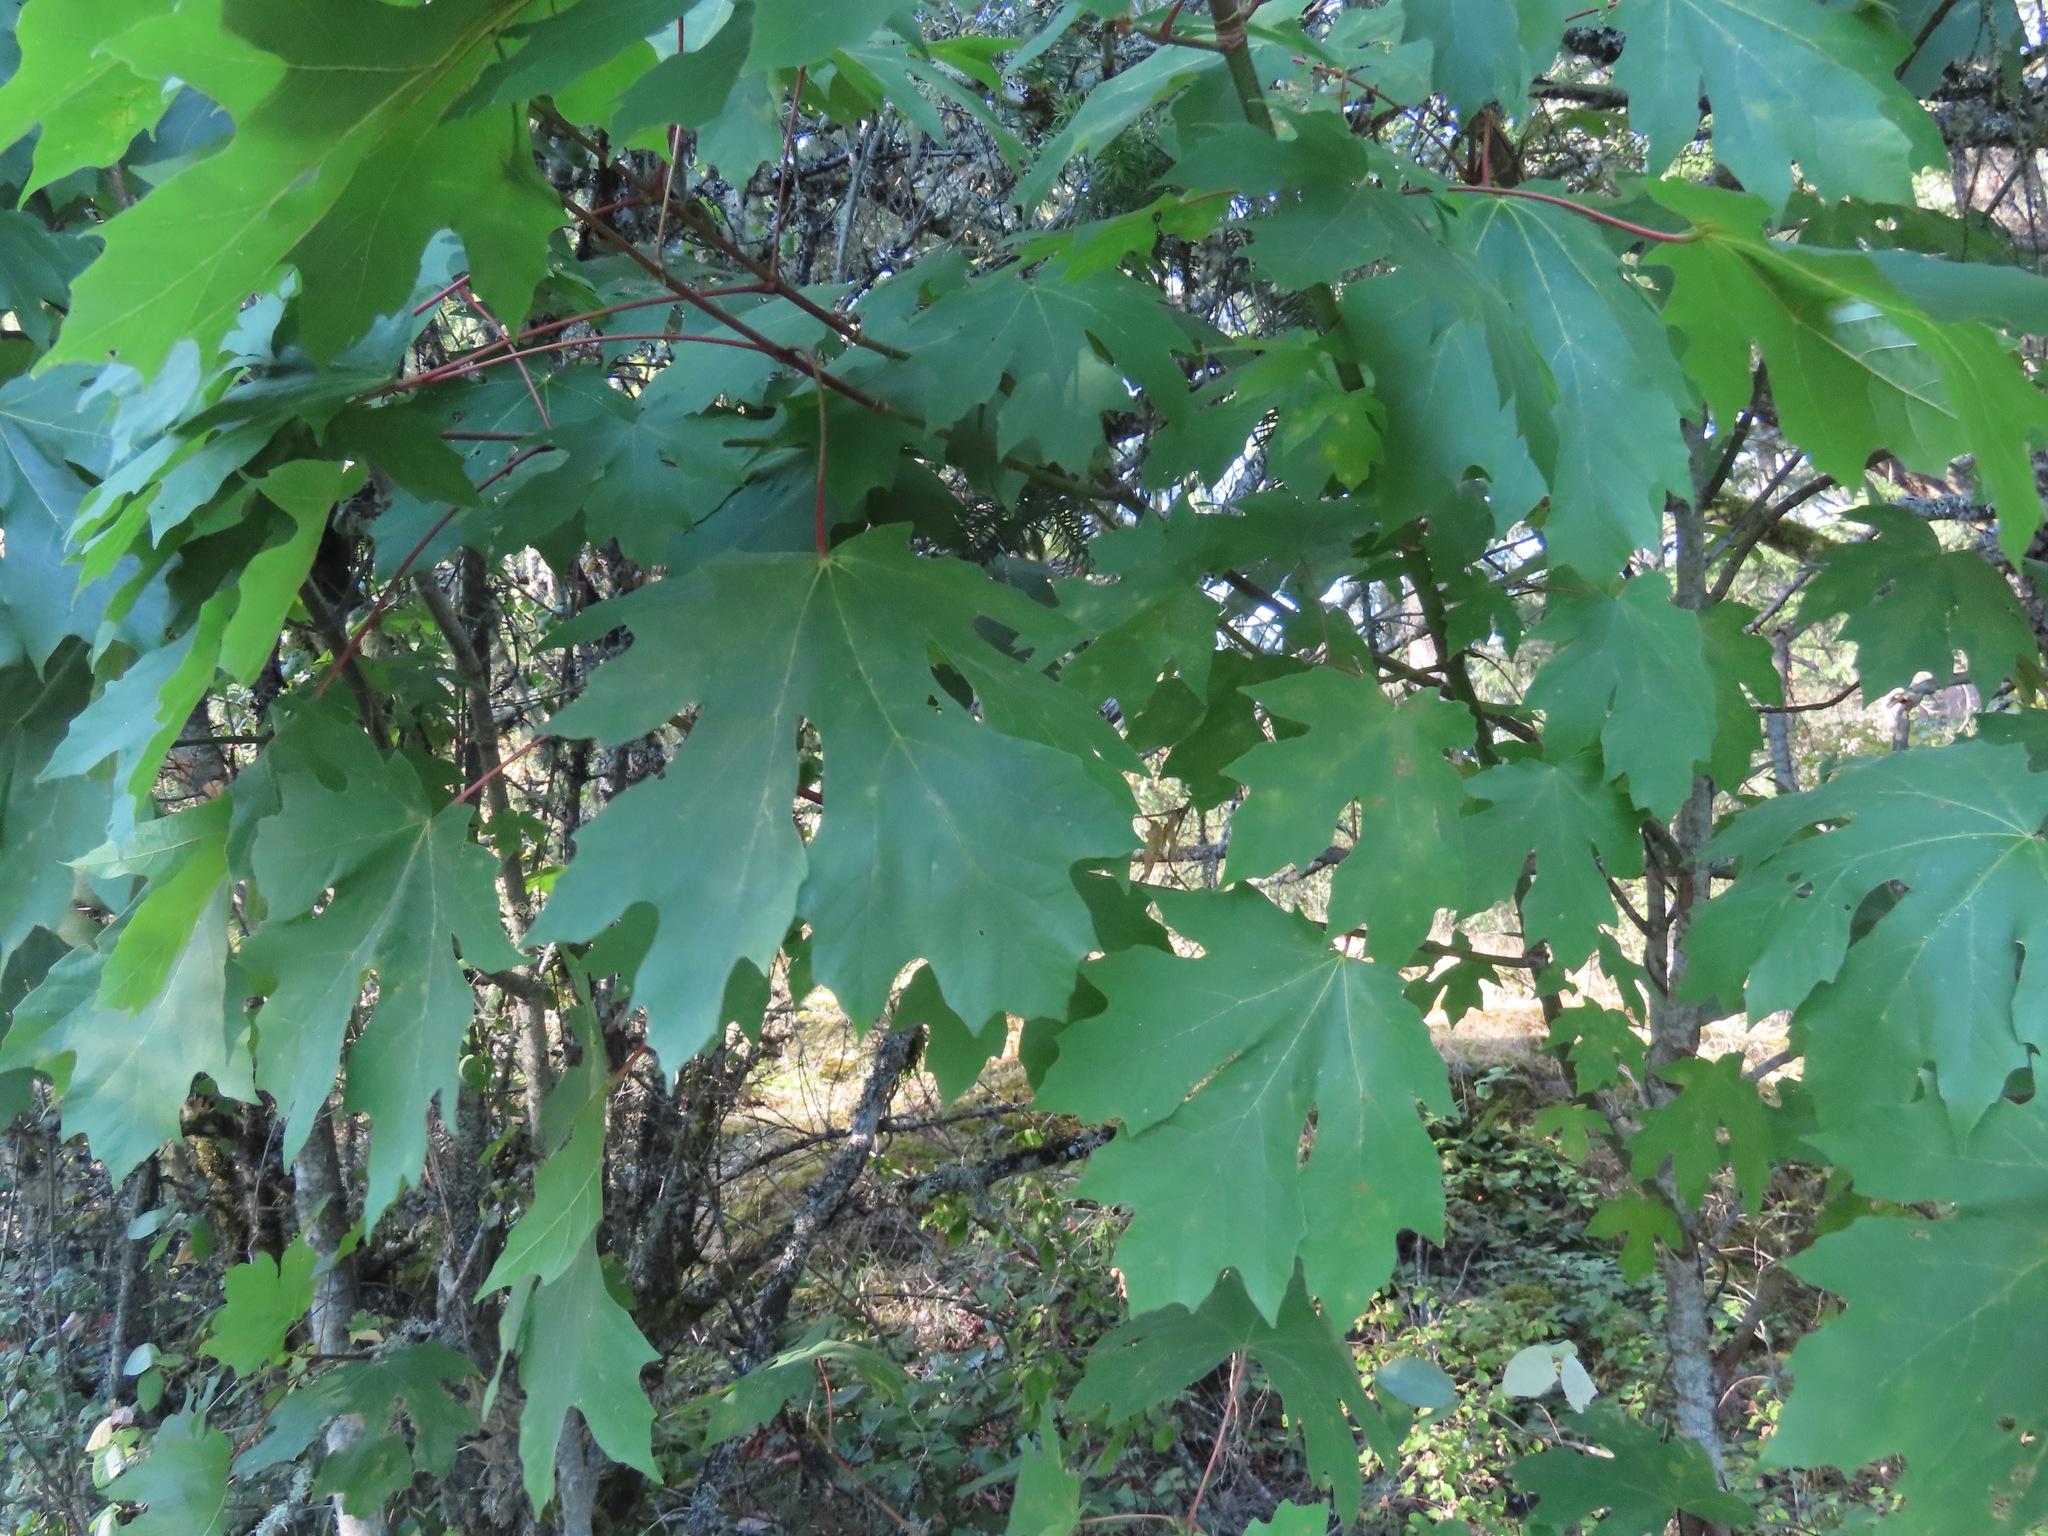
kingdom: Plantae
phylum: Tracheophyta
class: Magnoliopsida
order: Sapindales
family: Sapindaceae
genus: Acer
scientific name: Acer macrophyllum
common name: Oregon maple
